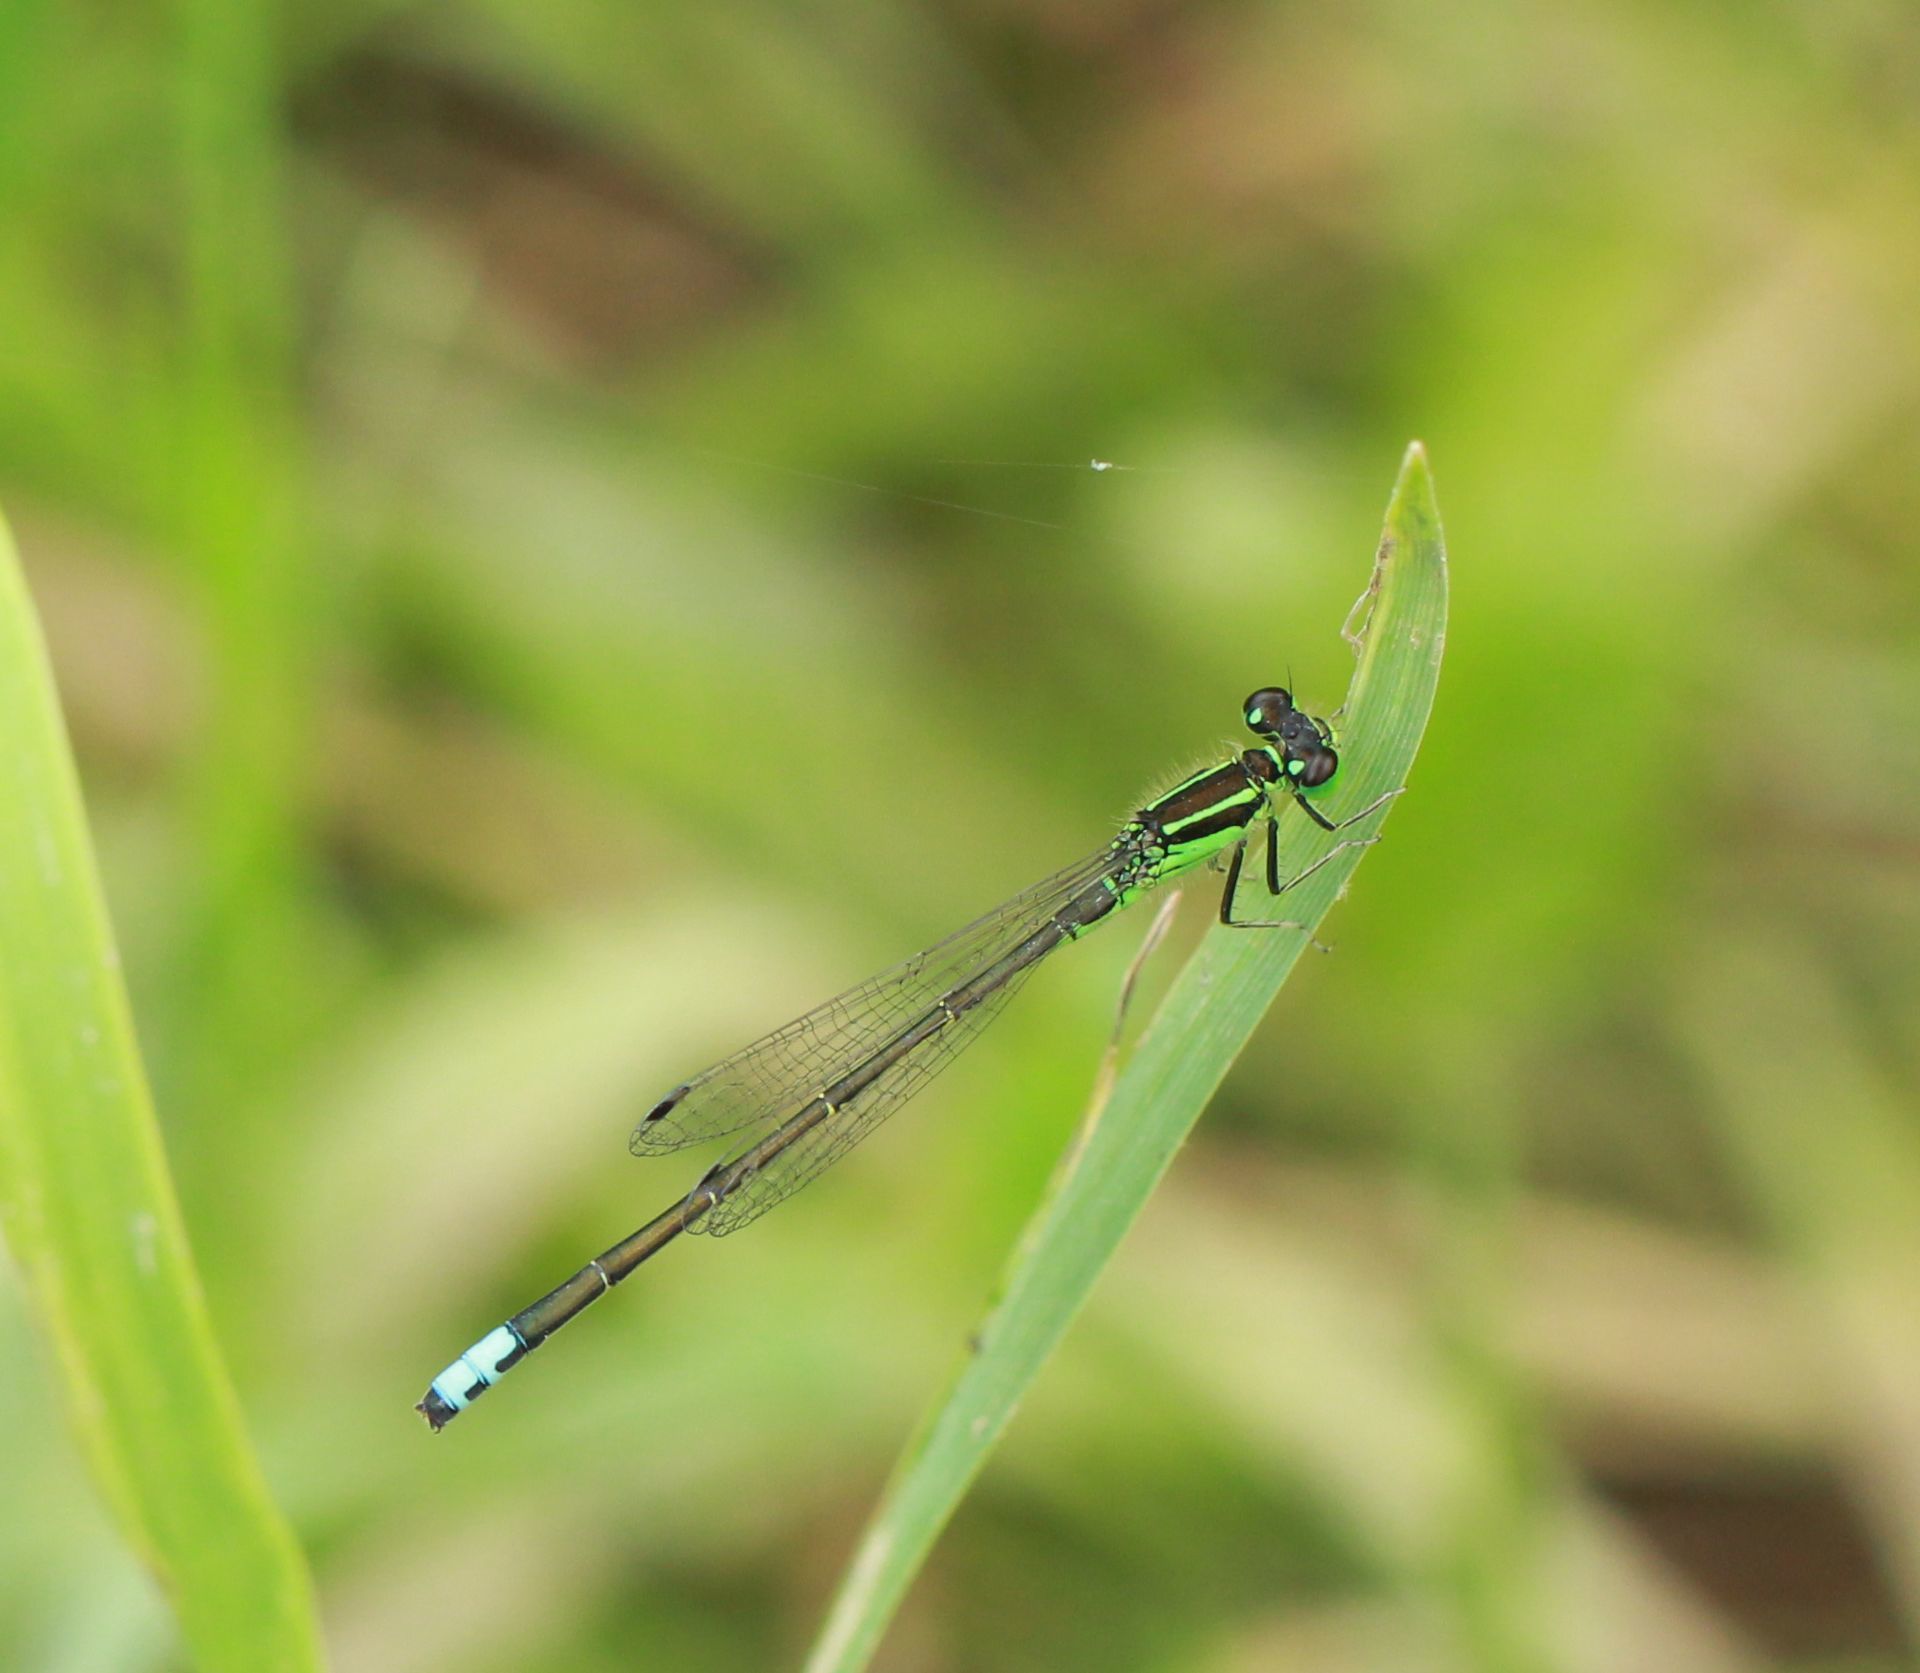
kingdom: Animalia
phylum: Arthropoda
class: Insecta
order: Odonata
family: Coenagrionidae
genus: Ischnura
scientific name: Ischnura verticalis
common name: Eastern forktail
